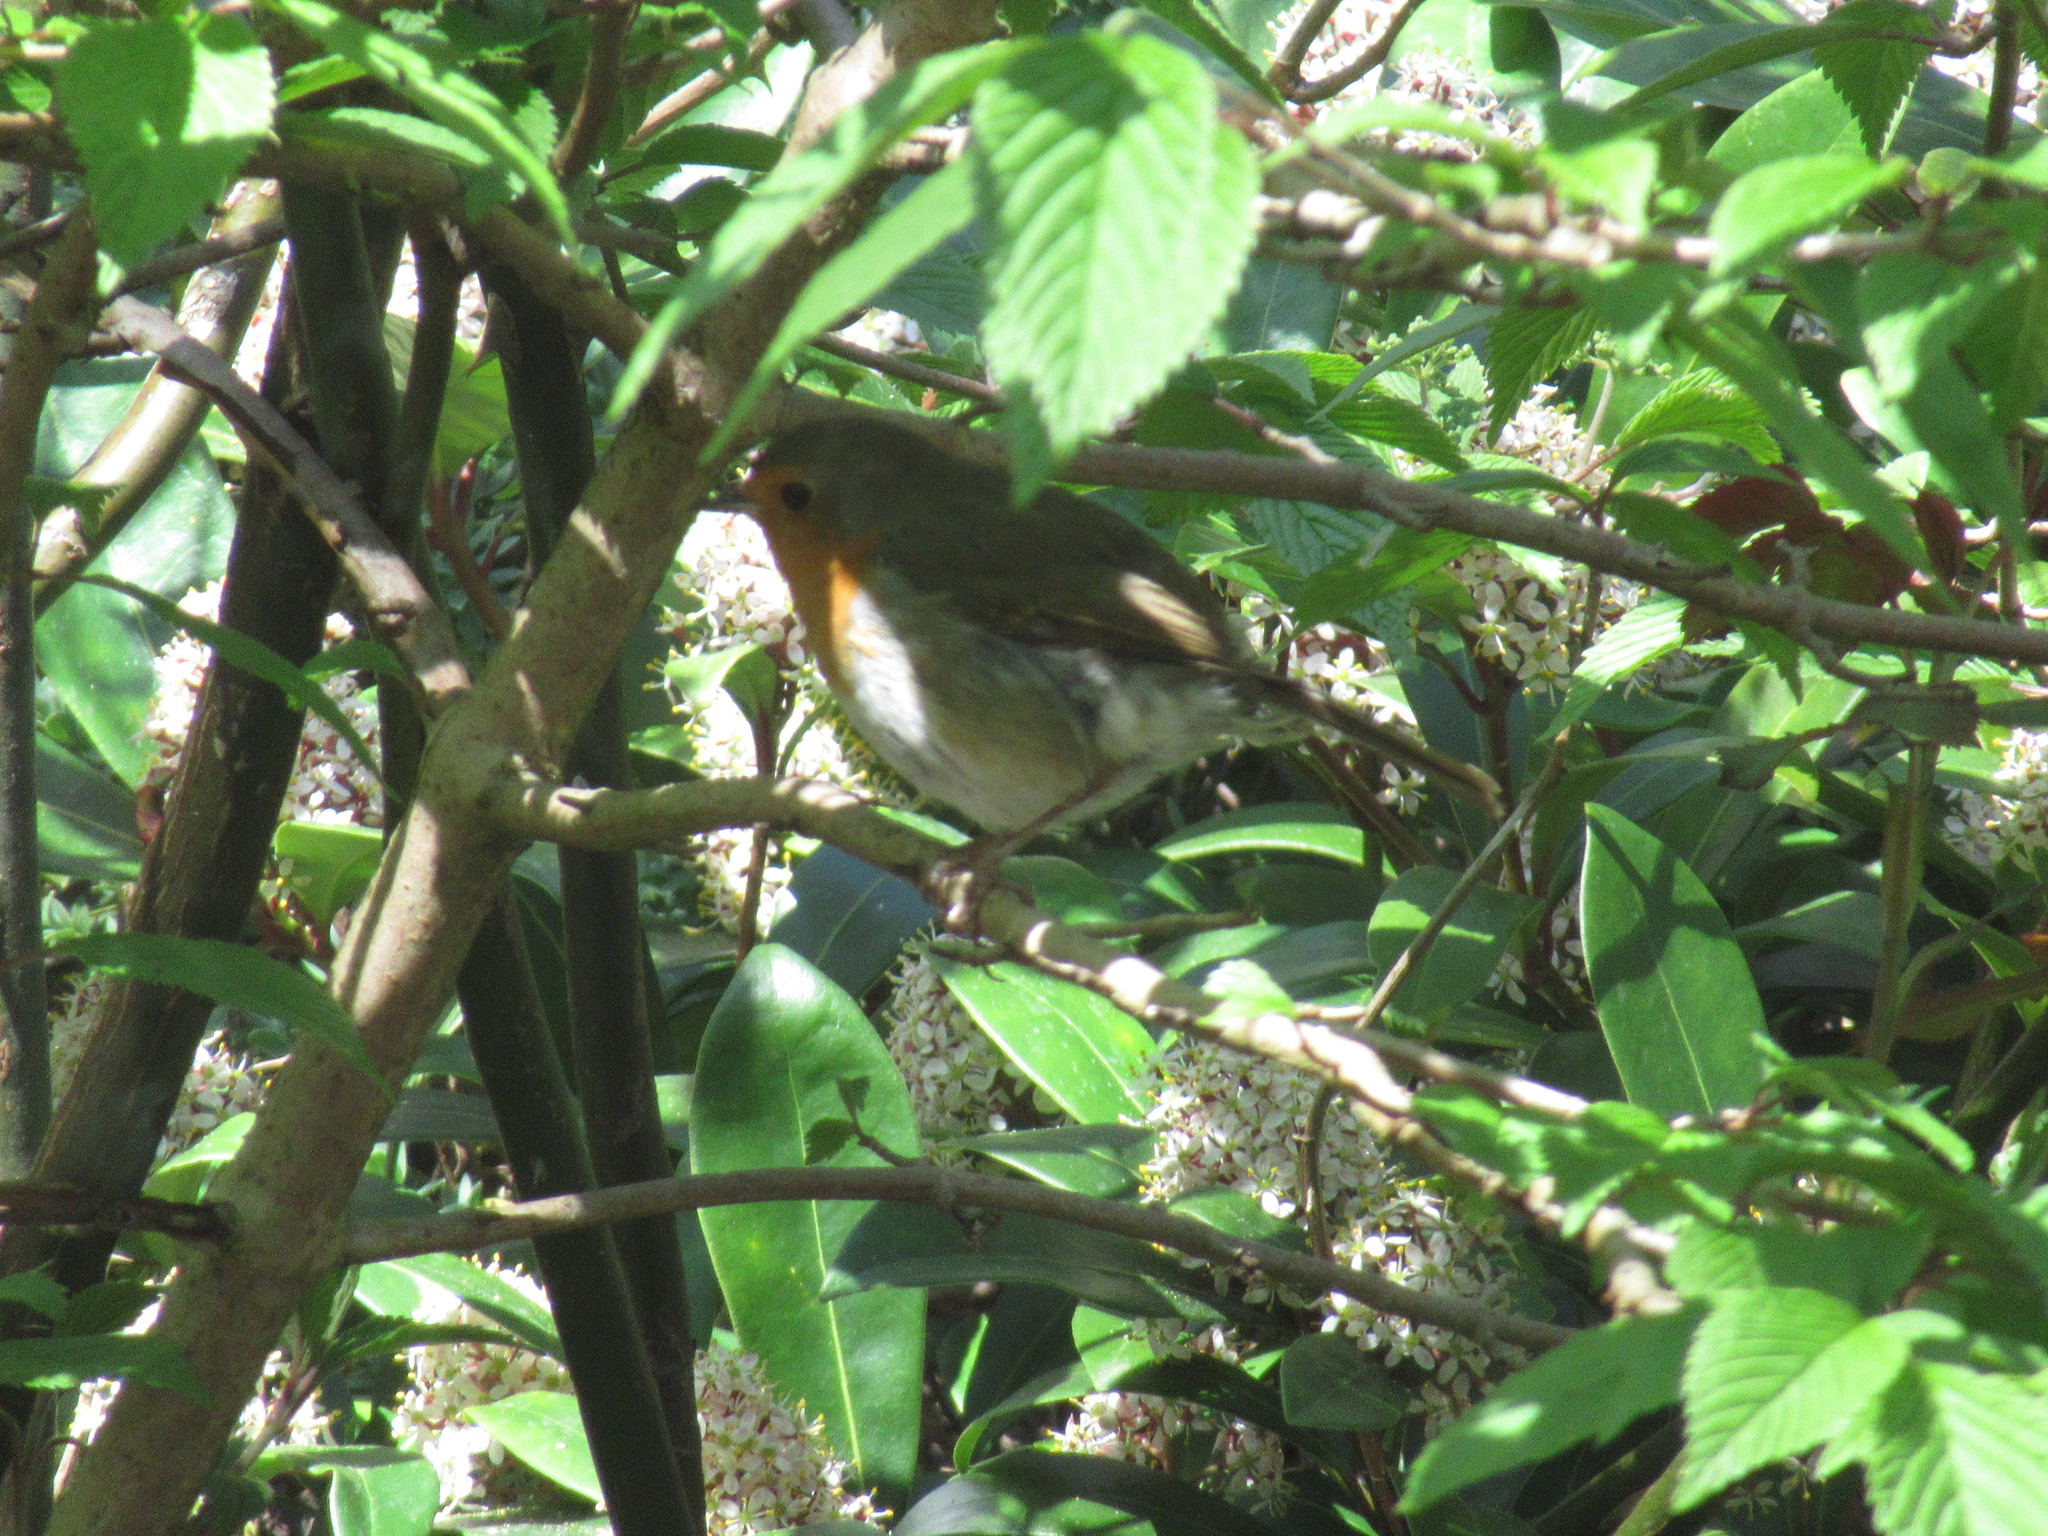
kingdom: Animalia
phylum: Chordata
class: Aves
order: Passeriformes
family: Muscicapidae
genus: Erithacus
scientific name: Erithacus rubecula
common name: European robin
